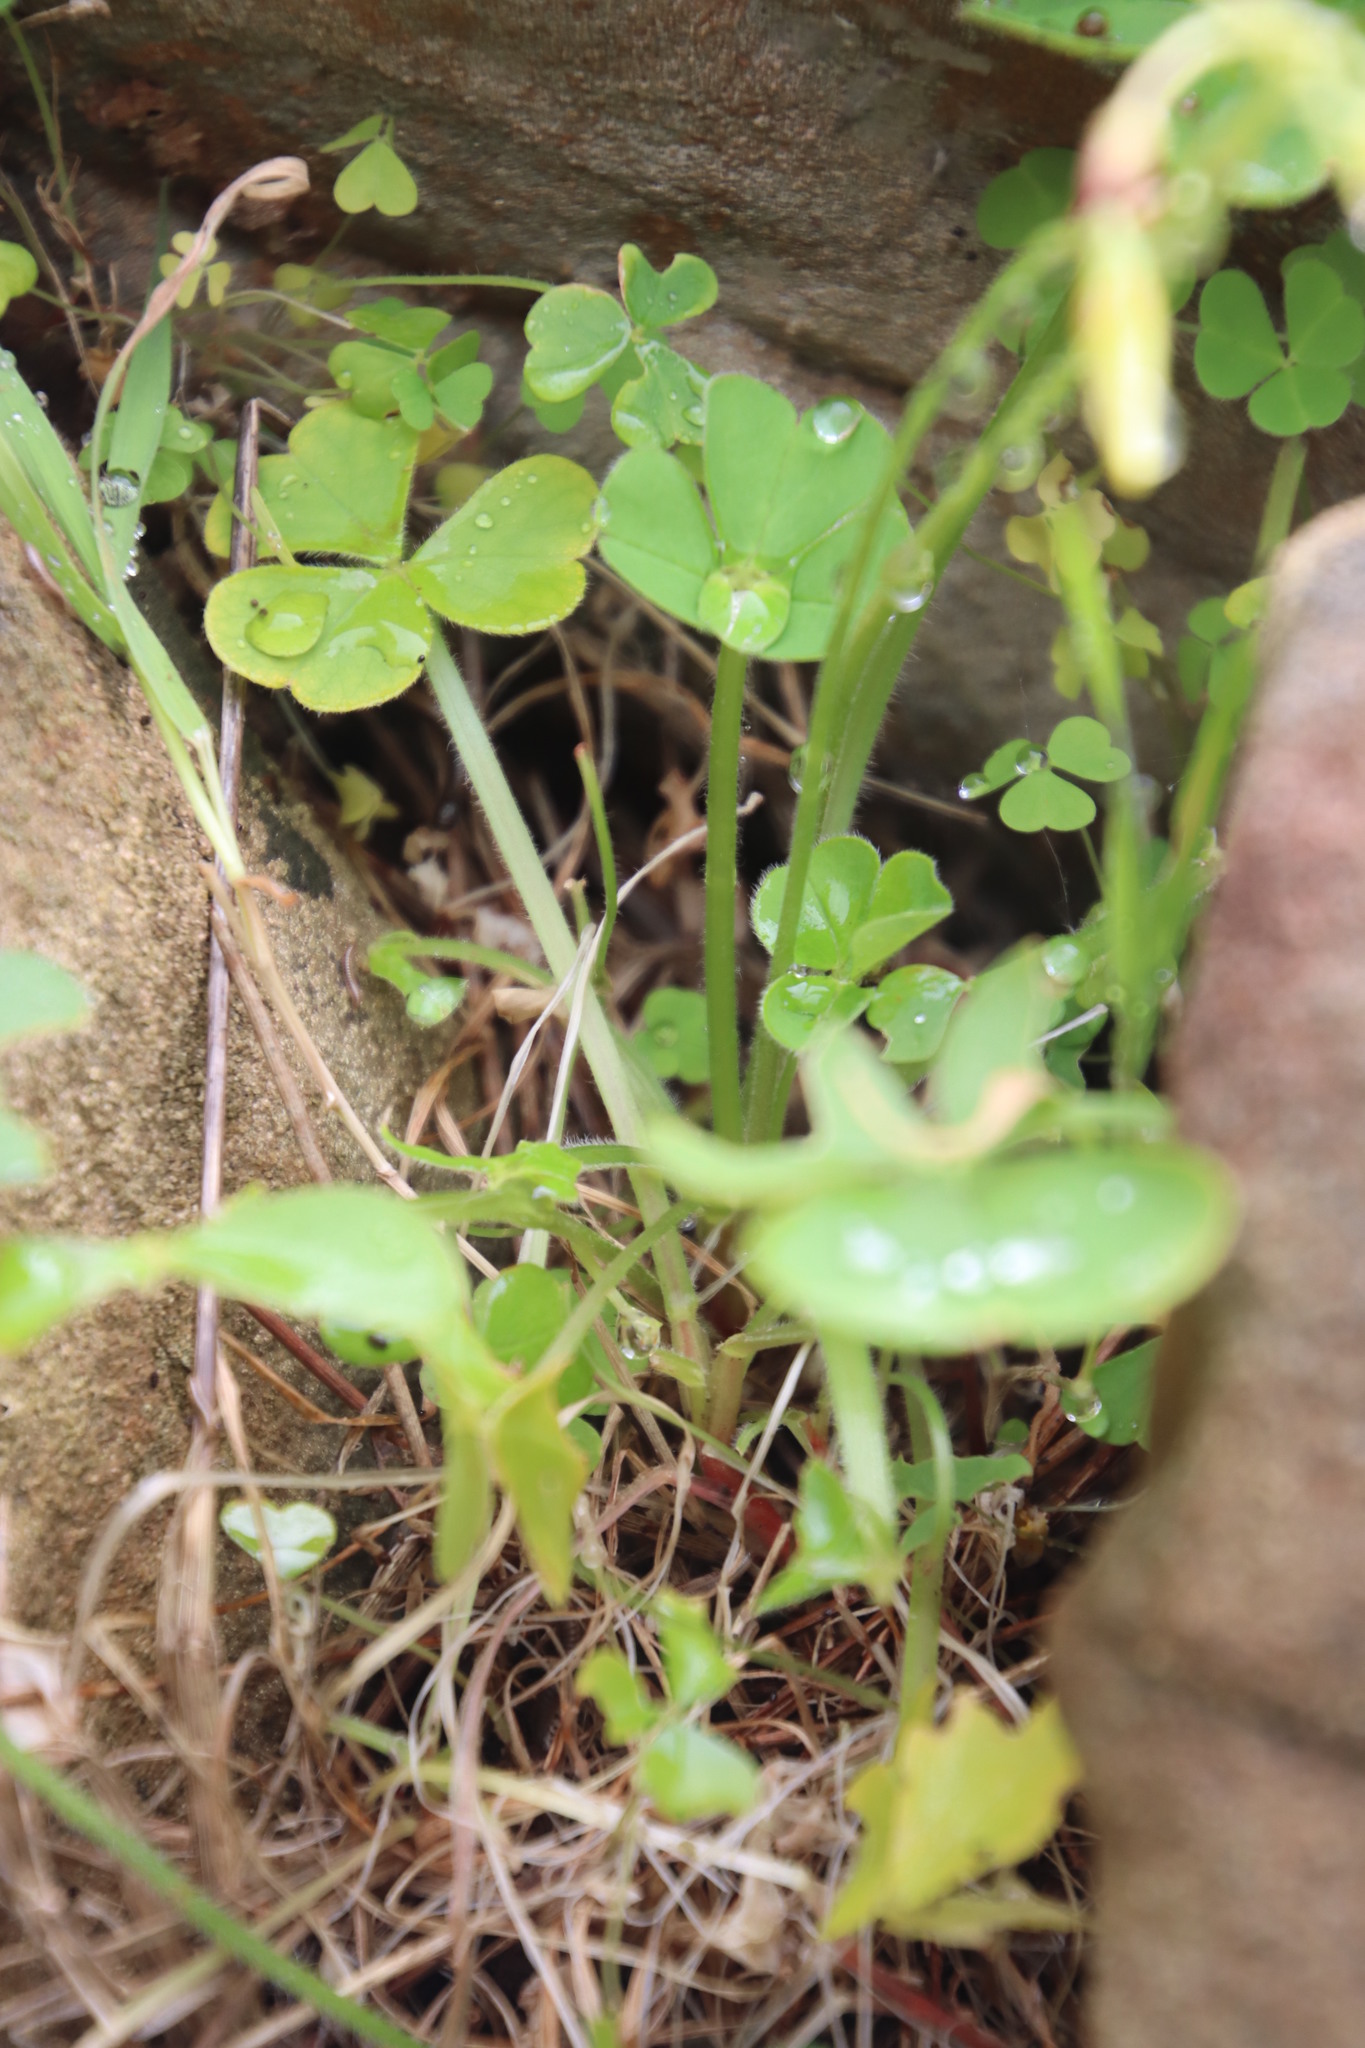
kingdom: Plantae
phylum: Tracheophyta
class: Magnoliopsida
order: Oxalidales
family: Oxalidaceae
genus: Oxalis
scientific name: Oxalis compressa
